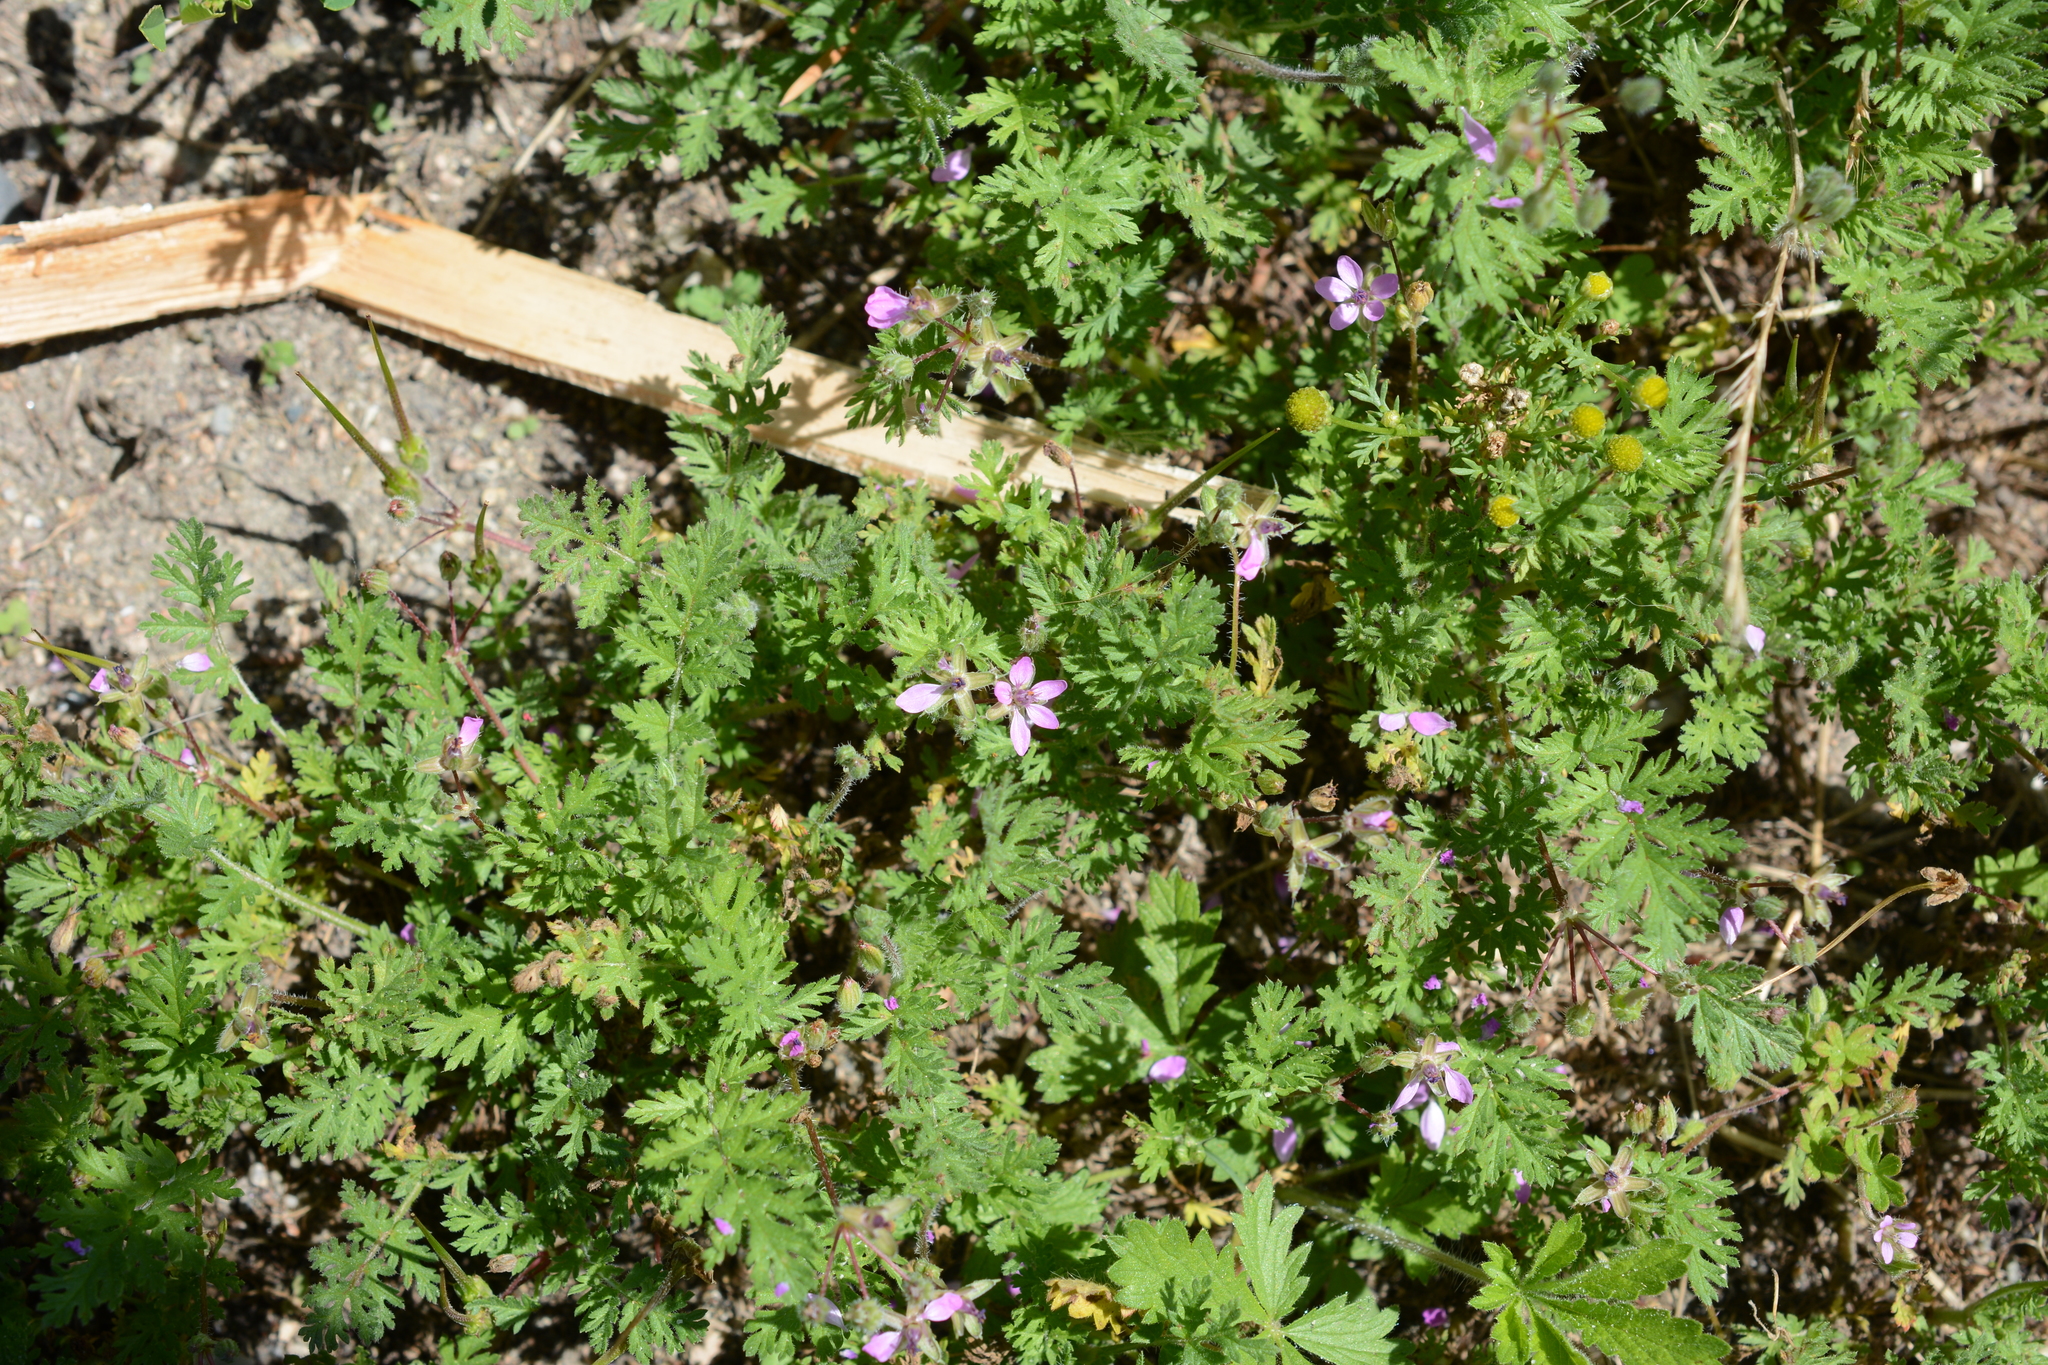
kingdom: Plantae
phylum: Tracheophyta
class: Magnoliopsida
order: Geraniales
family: Geraniaceae
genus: Erodium
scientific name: Erodium cicutarium
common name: Common stork's-bill
